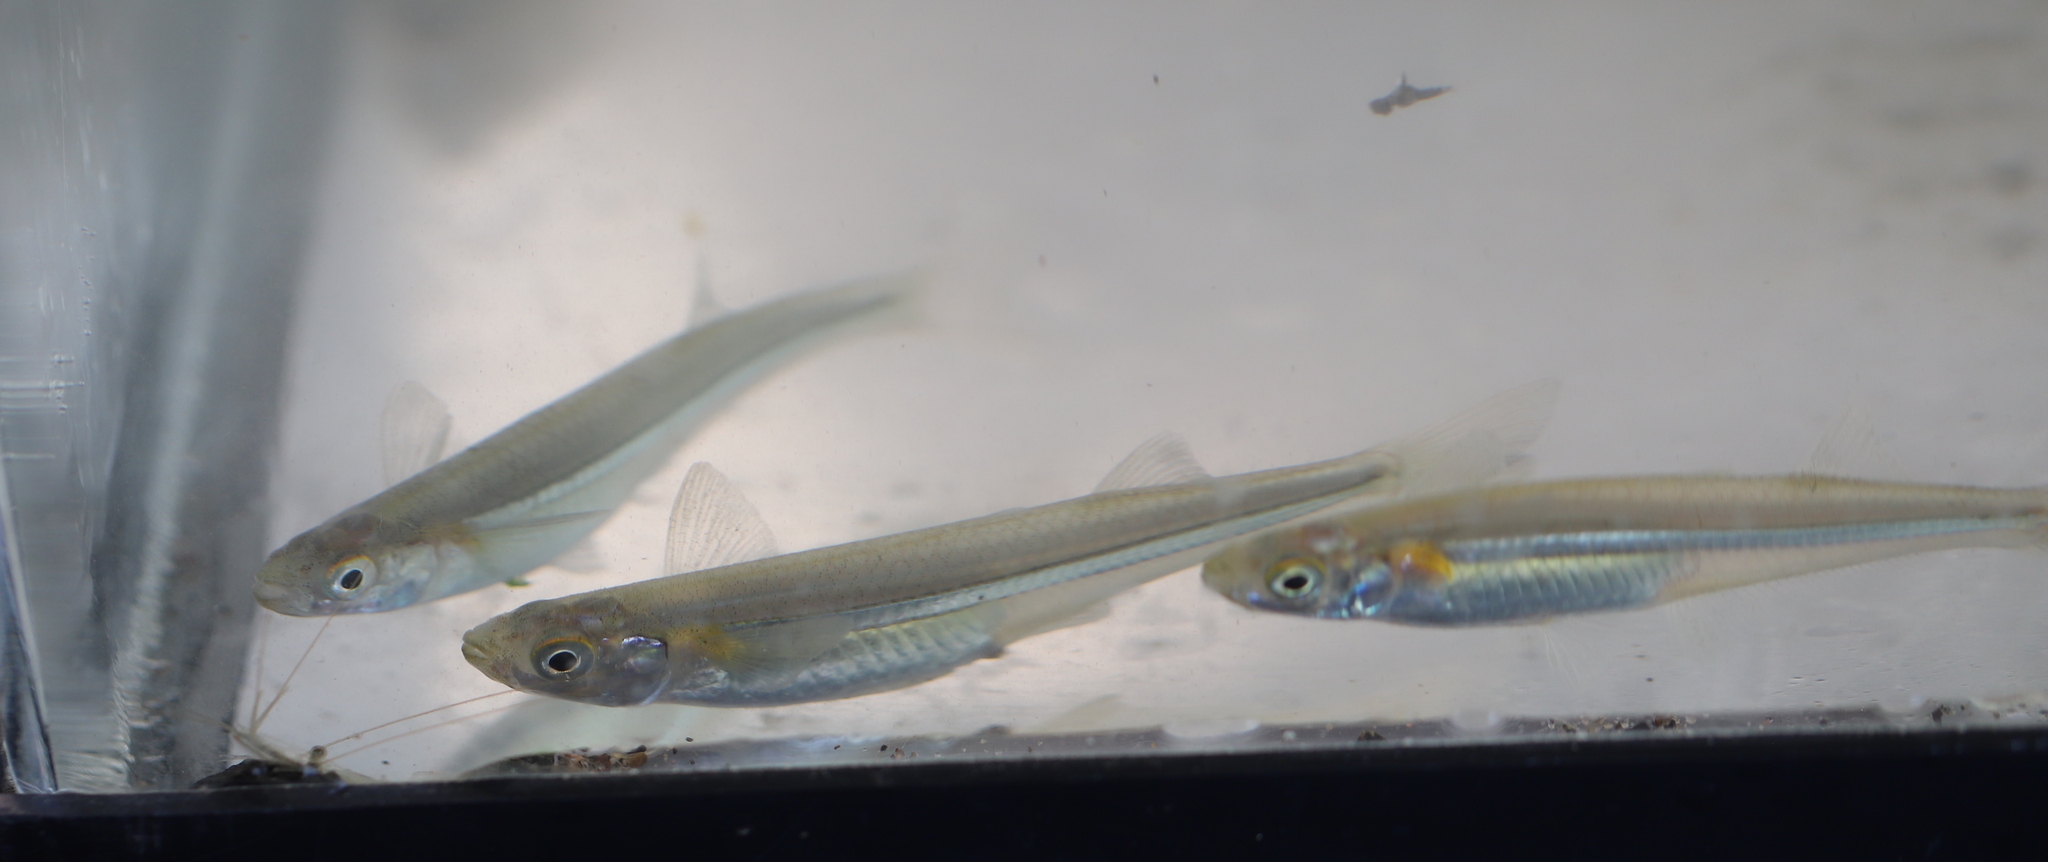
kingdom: Animalia
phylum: Chordata
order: Atheriniformes
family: Atherinopsidae
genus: Menidia
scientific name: Menidia menidia
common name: Atlantic silverside
